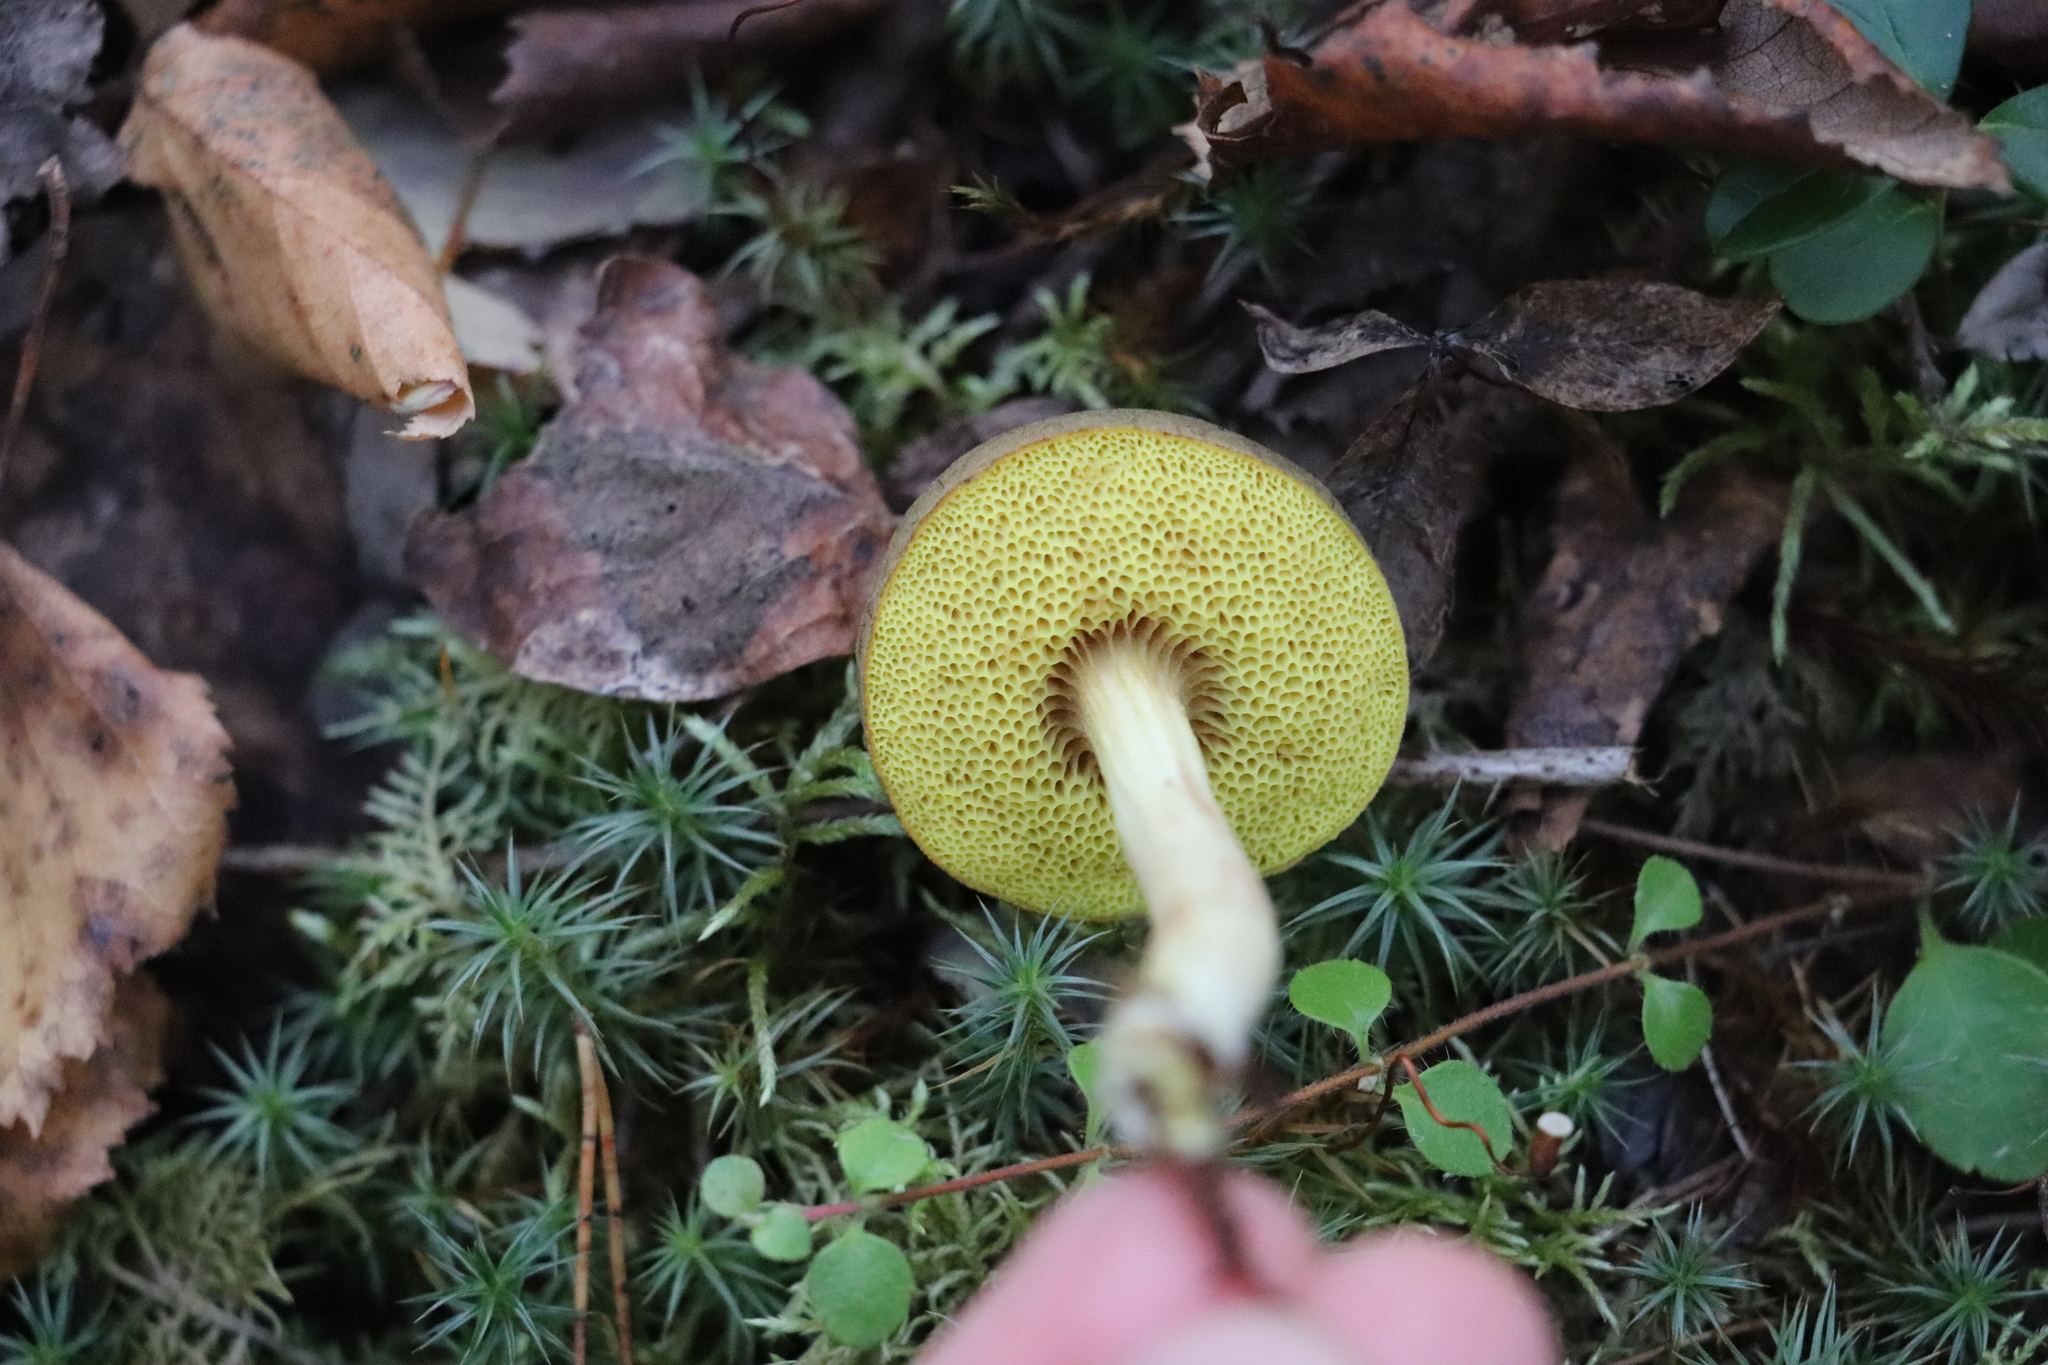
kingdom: Fungi
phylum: Basidiomycota
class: Agaricomycetes
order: Boletales
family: Boletaceae
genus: Xerocomus
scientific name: Xerocomus subtomentosus
